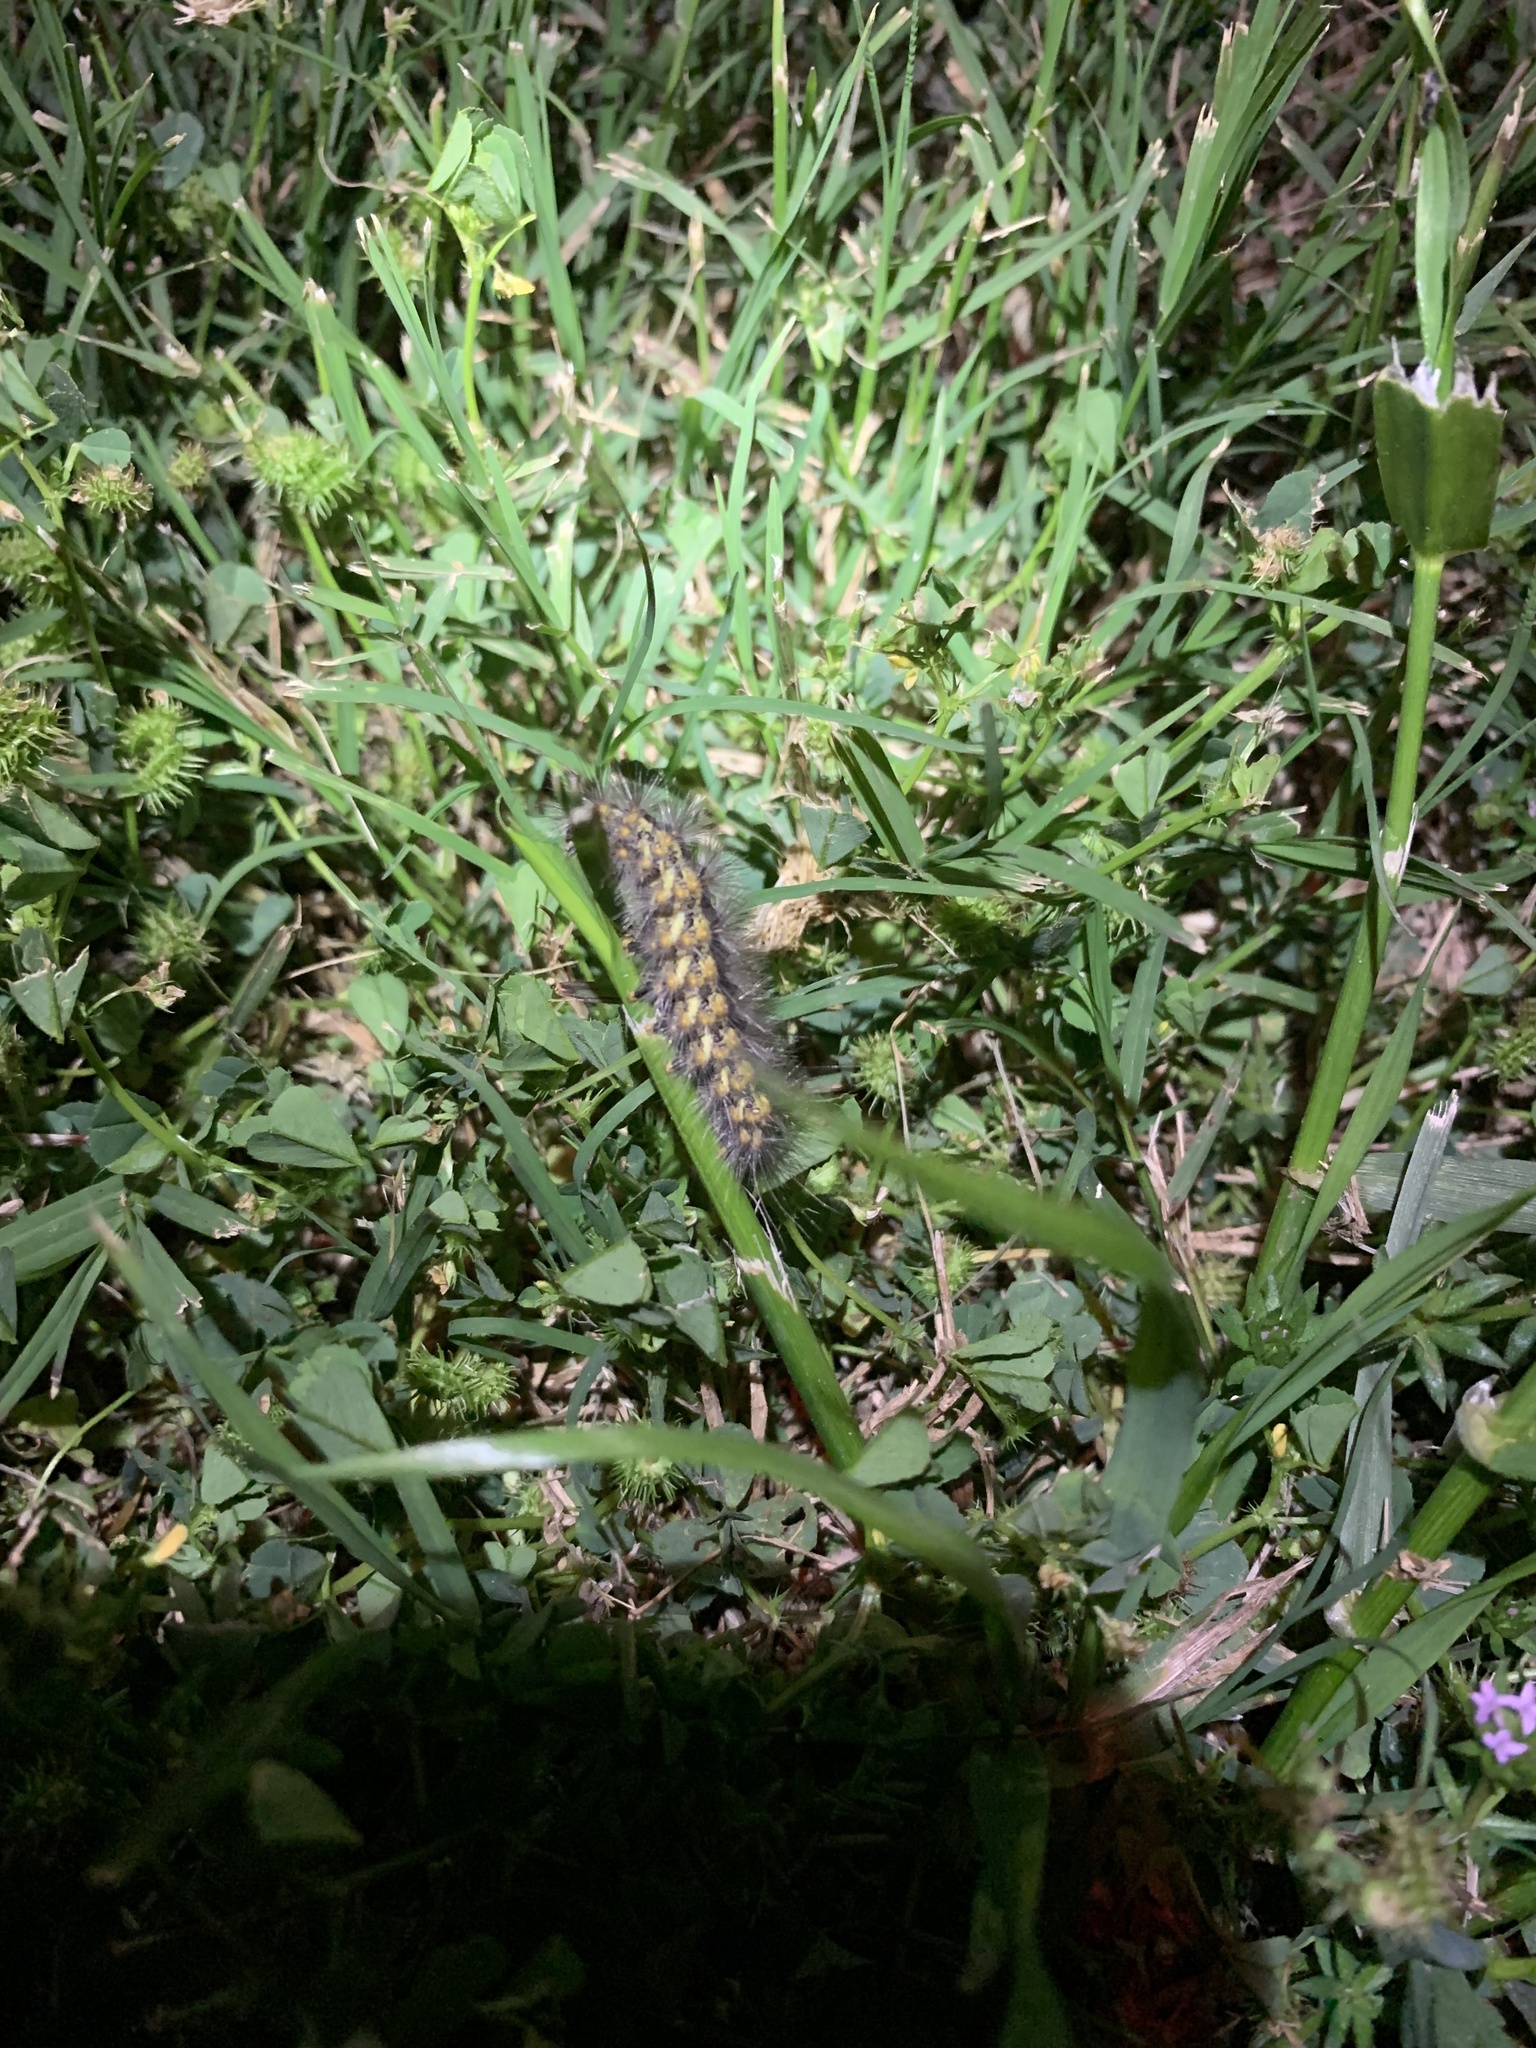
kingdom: Animalia
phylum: Arthropoda
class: Insecta
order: Lepidoptera
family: Erebidae
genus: Estigmene
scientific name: Estigmene acrea
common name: Salt marsh moth
